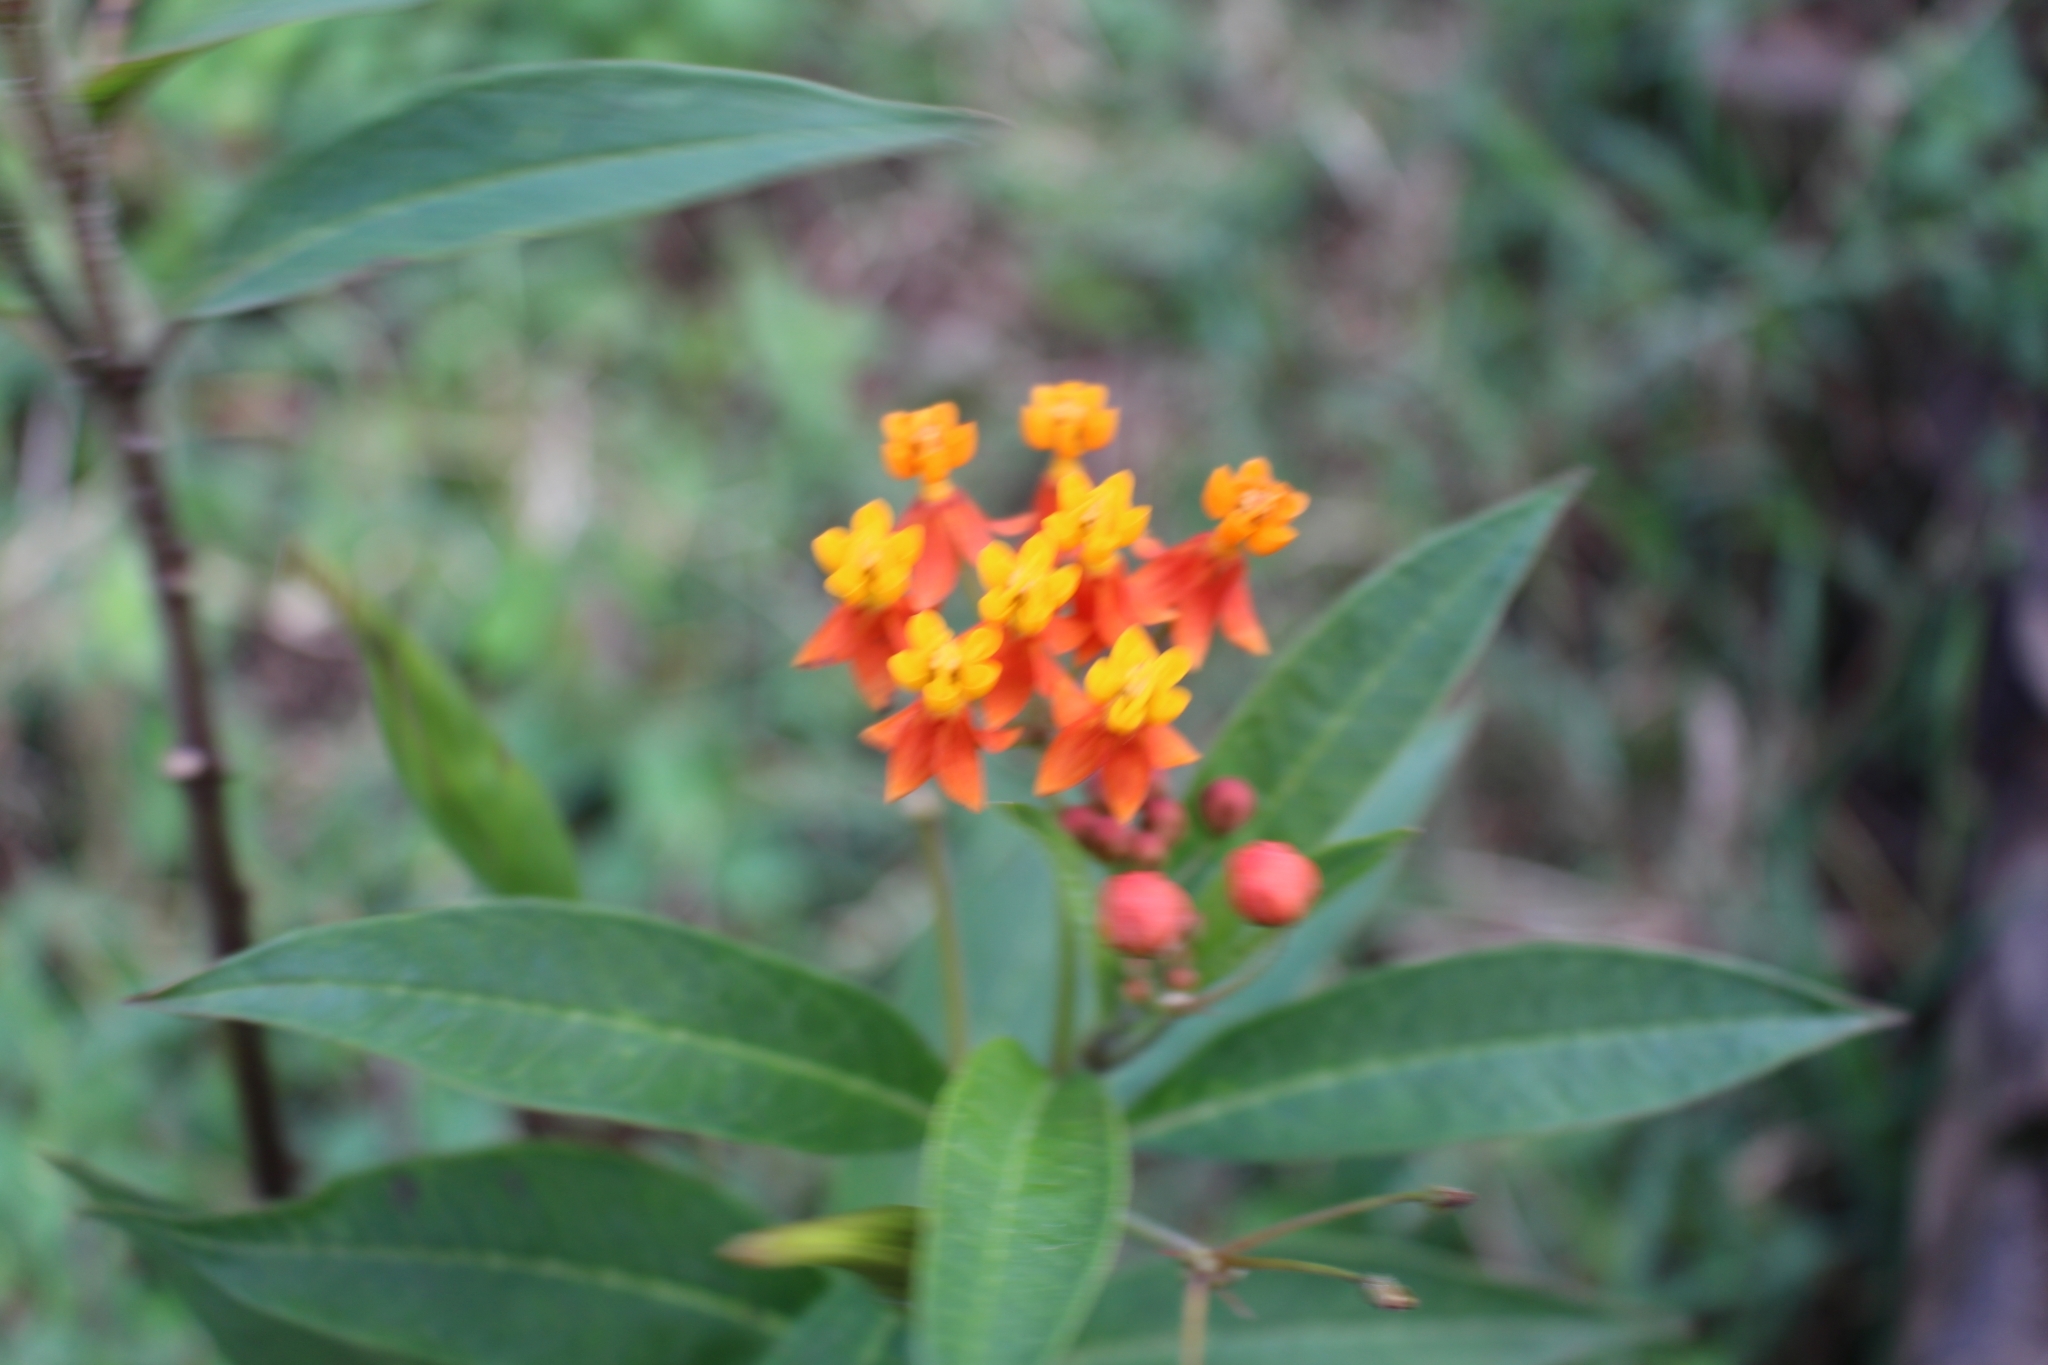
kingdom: Plantae
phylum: Tracheophyta
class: Magnoliopsida
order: Gentianales
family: Apocynaceae
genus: Asclepias
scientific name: Asclepias curassavica
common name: Bloodflower
